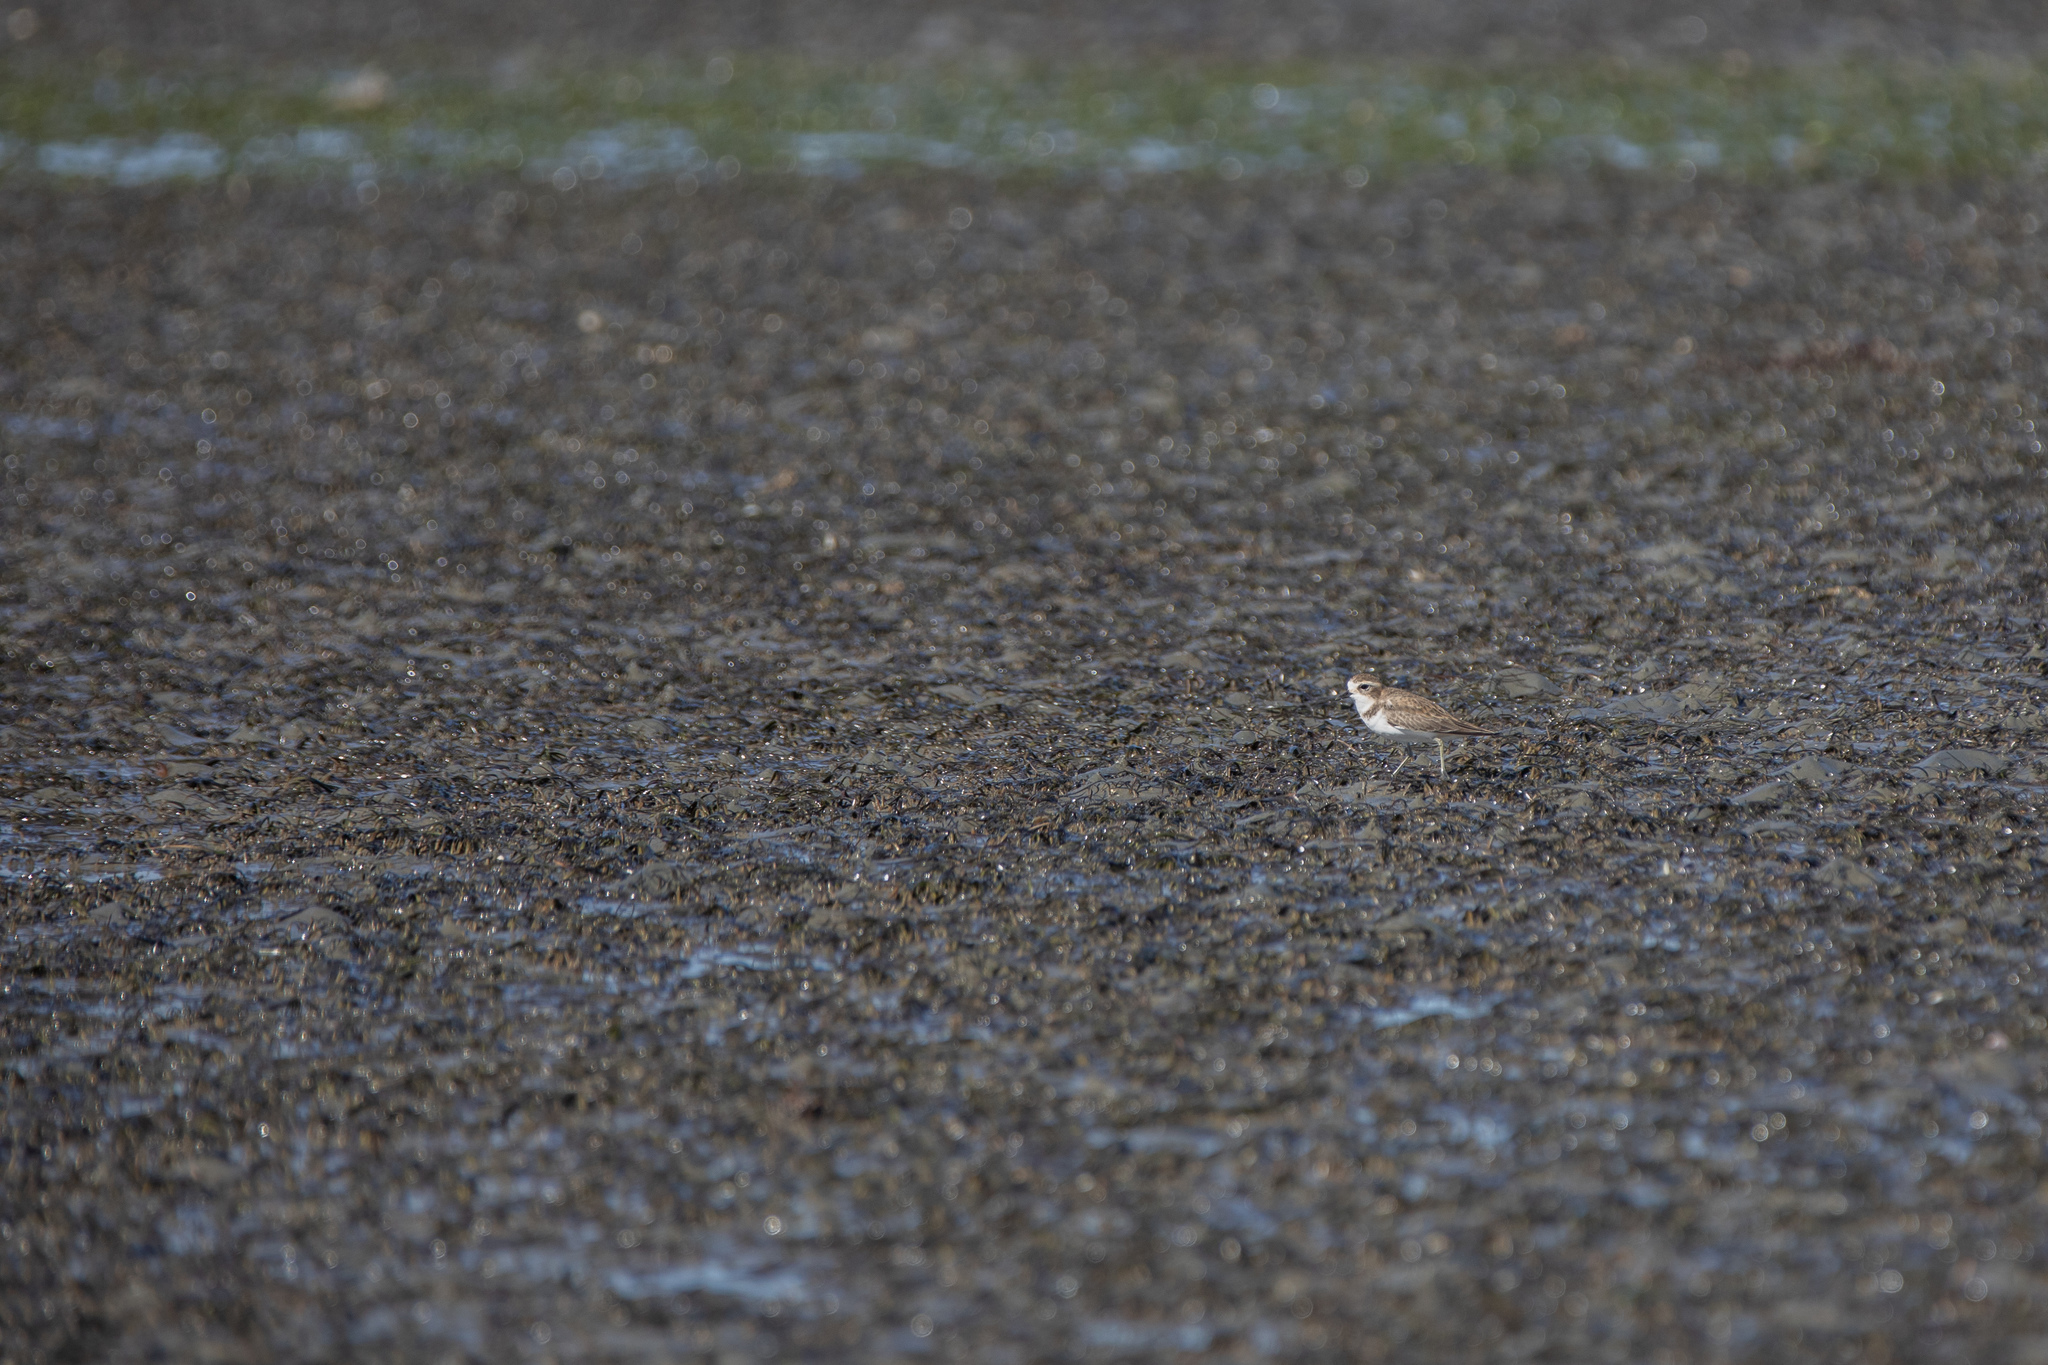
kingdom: Animalia
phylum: Chordata
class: Aves
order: Charadriiformes
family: Charadriidae
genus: Anarhynchus
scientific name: Anarhynchus
